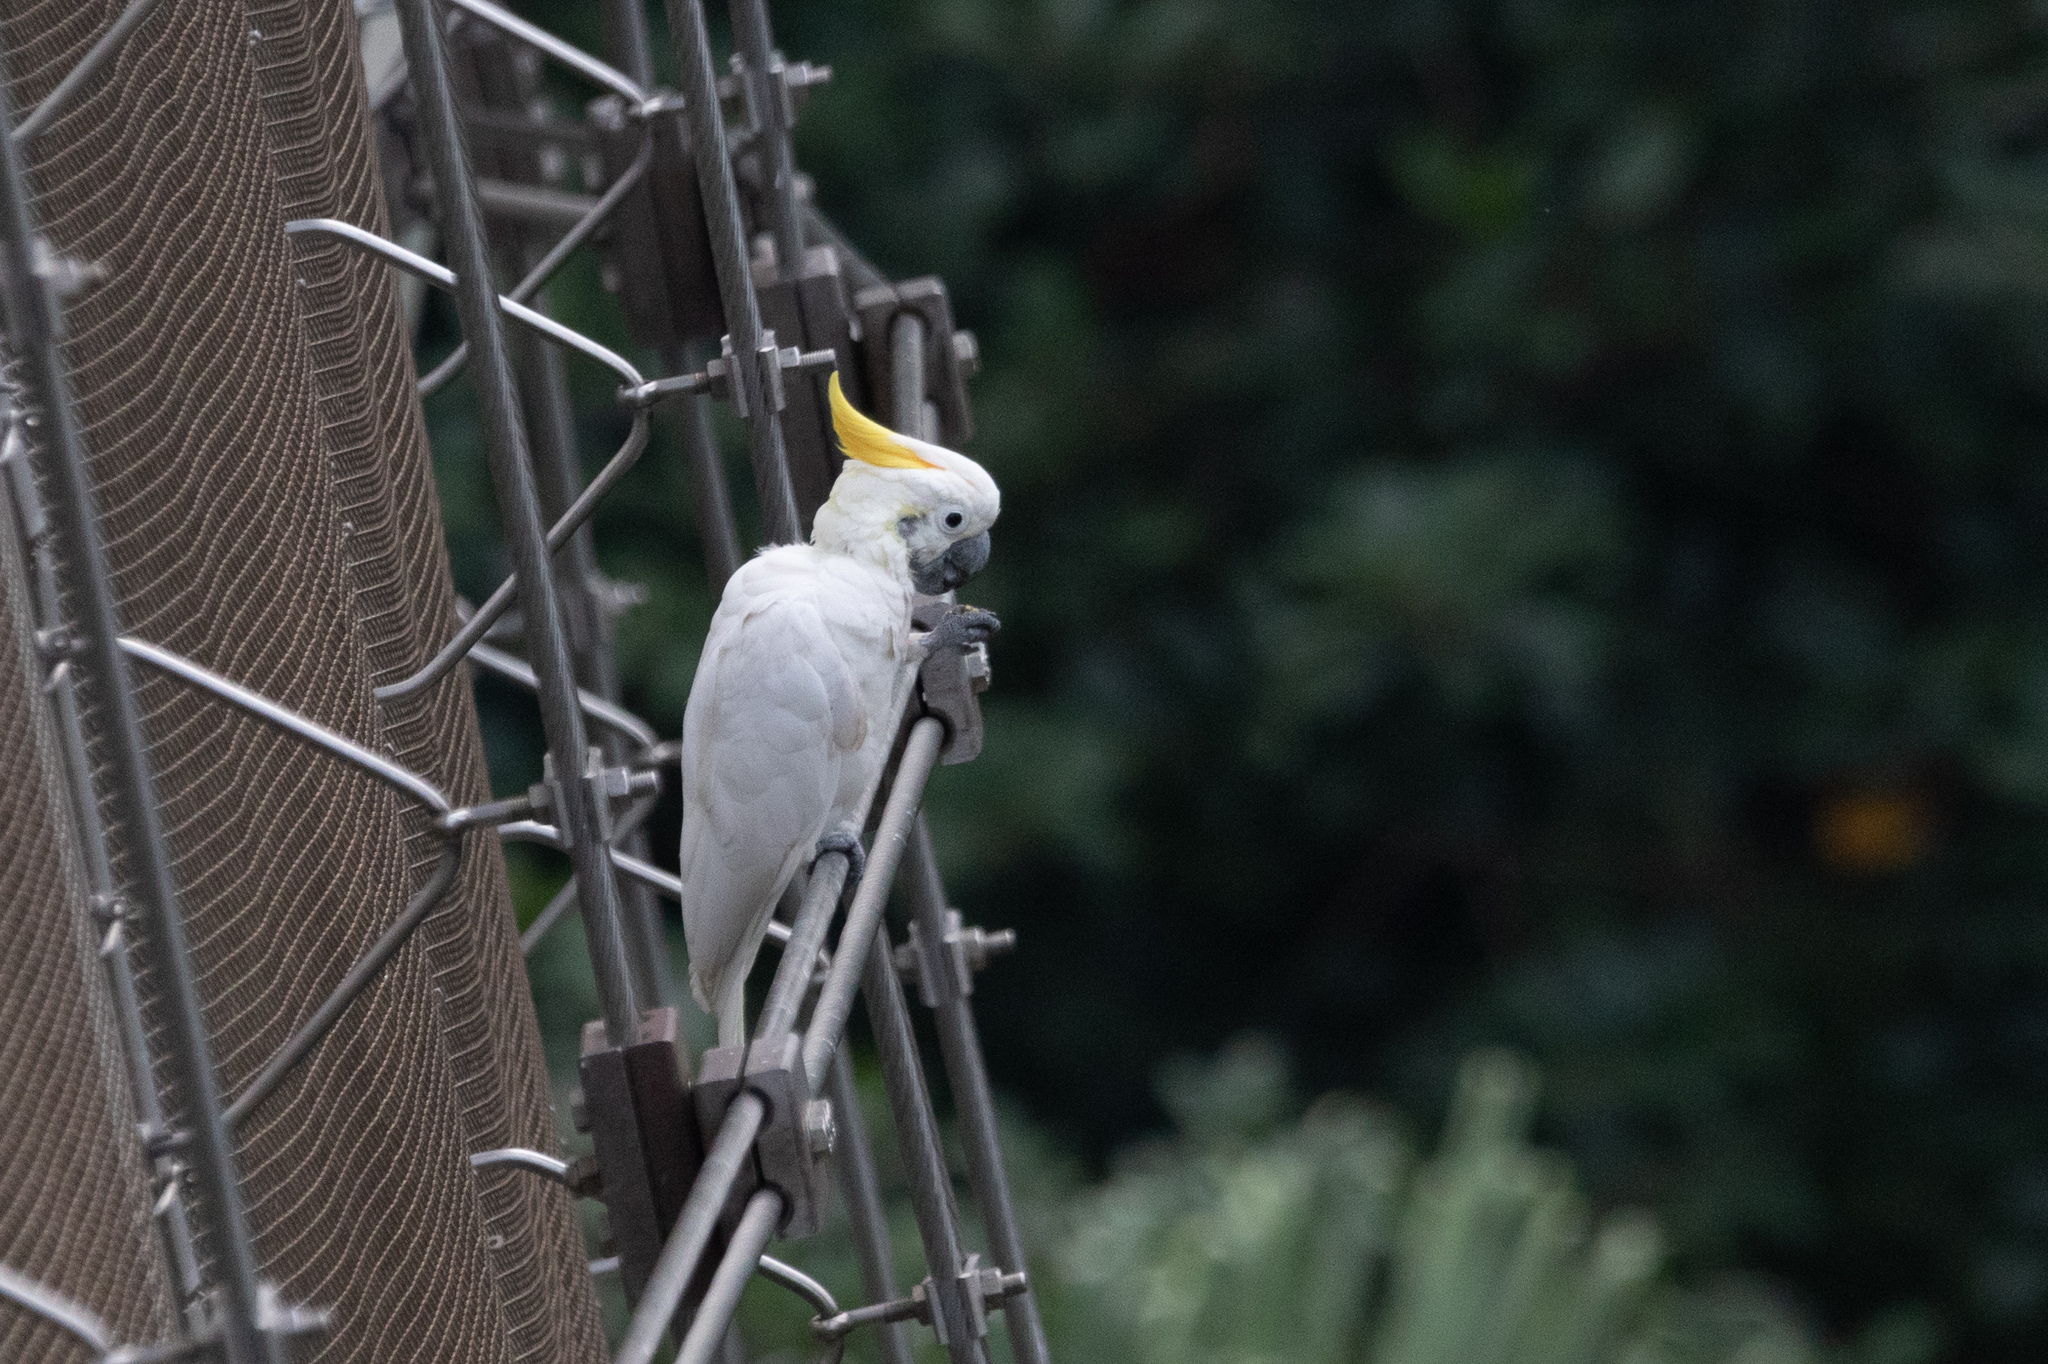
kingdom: Animalia
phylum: Chordata
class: Aves
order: Psittaciformes
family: Psittacidae
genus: Cacatua
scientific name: Cacatua sulphurea
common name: Yellow-crested cockatoo
